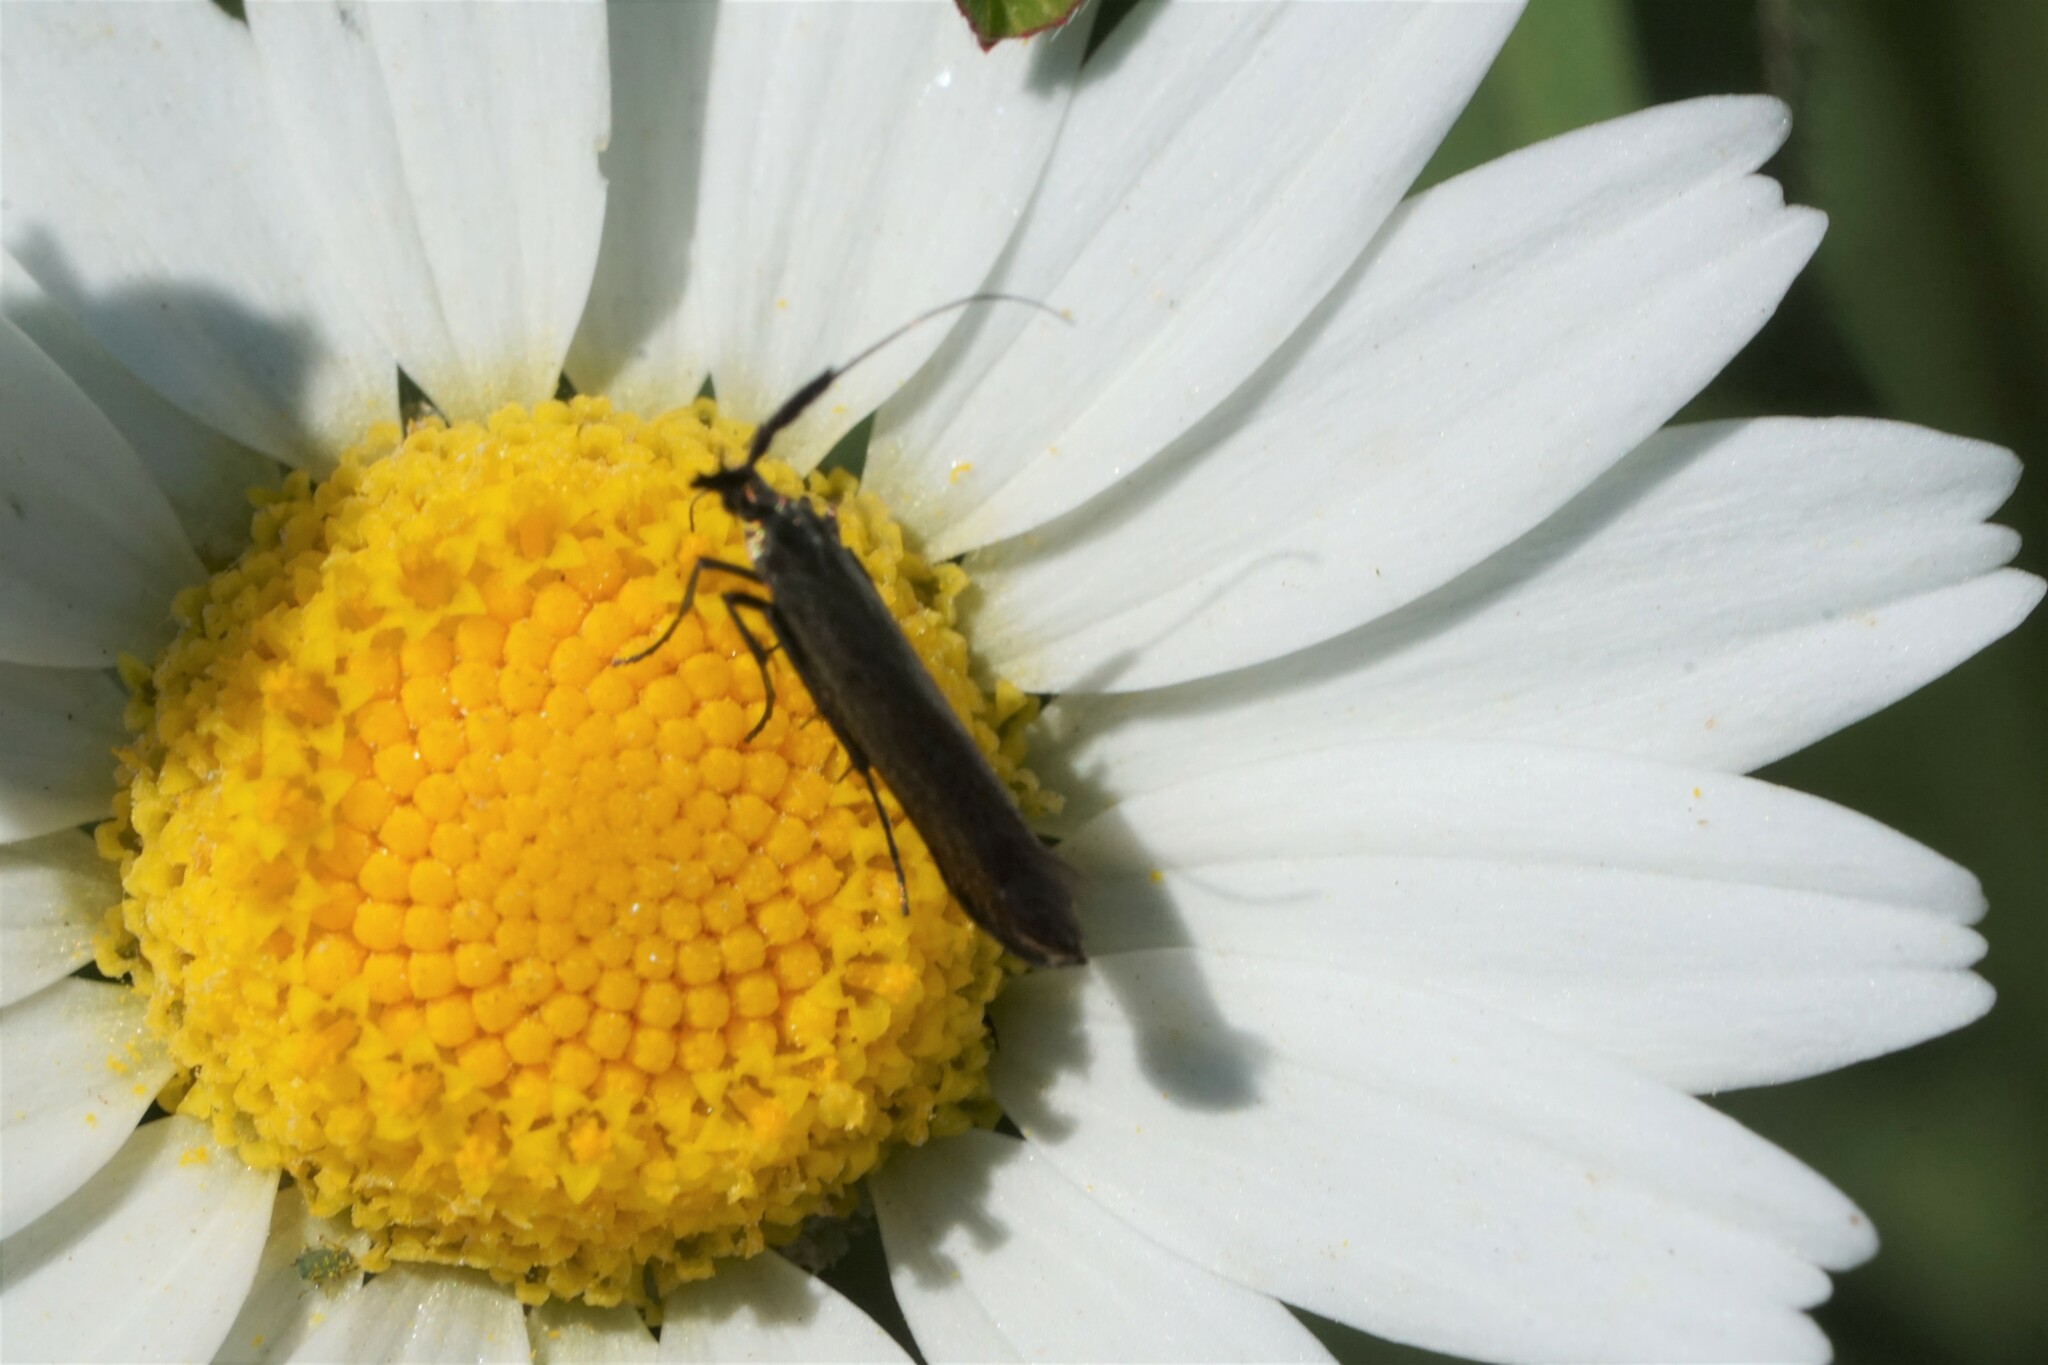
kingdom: Animalia
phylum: Arthropoda
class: Insecta
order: Lepidoptera
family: Coleophoridae
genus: Coleophora
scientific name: Coleophora deauratella
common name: Red-clover case-bearer
